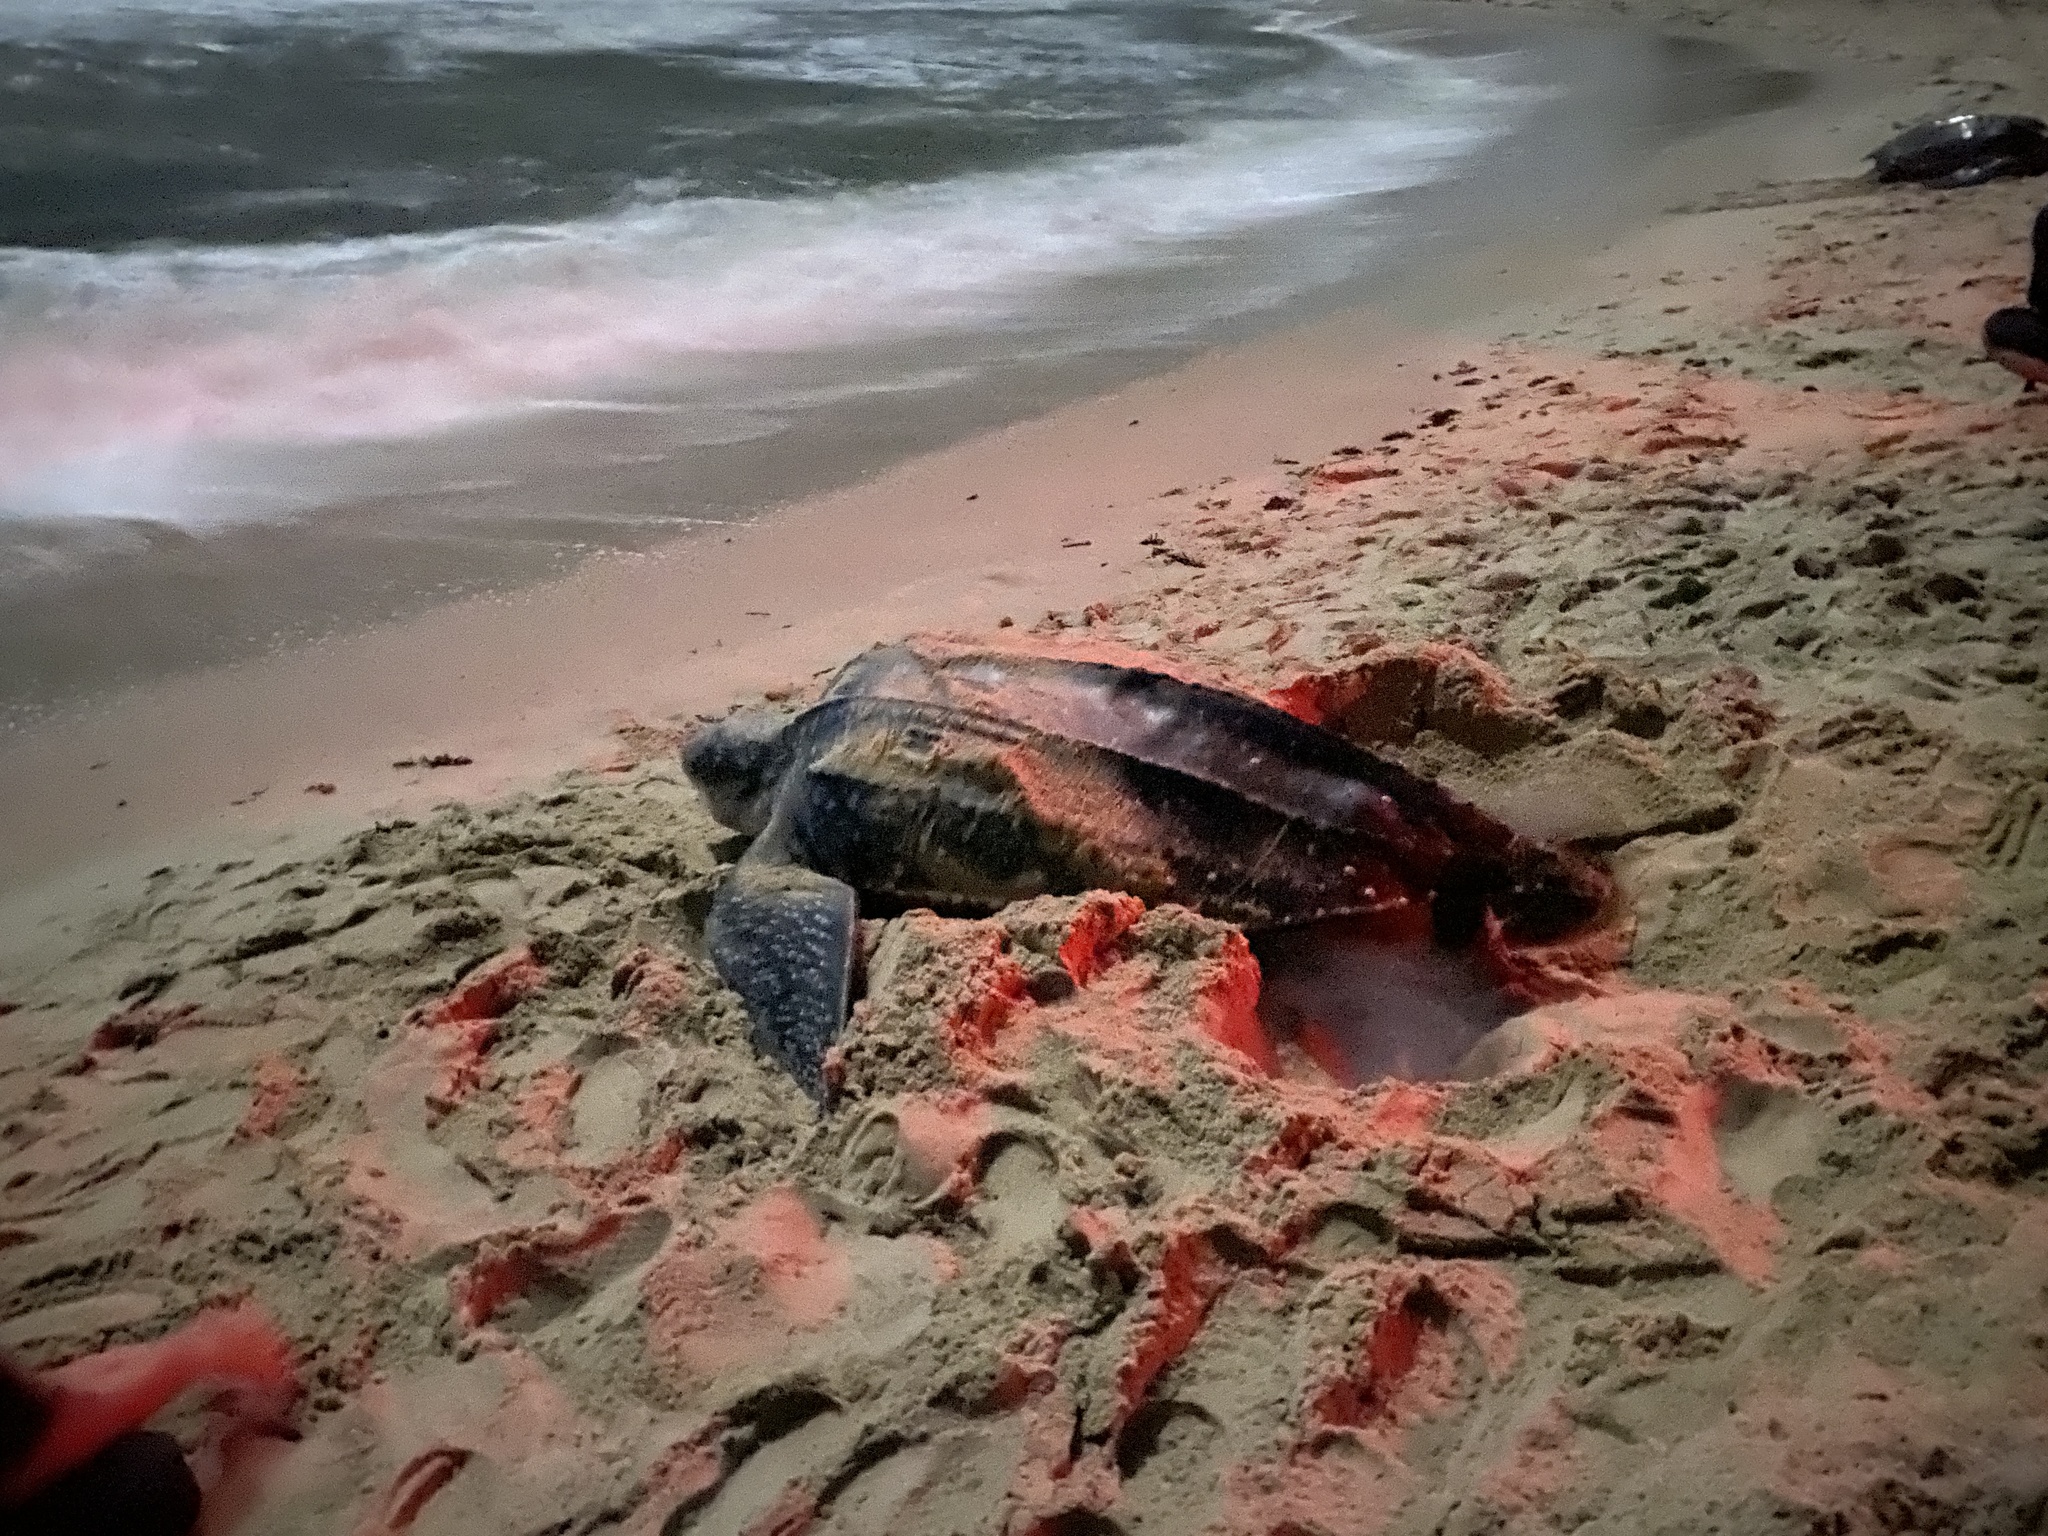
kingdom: Animalia
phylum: Chordata
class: Testudines
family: Dermochelyidae
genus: Dermochelys
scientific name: Dermochelys coriacea
